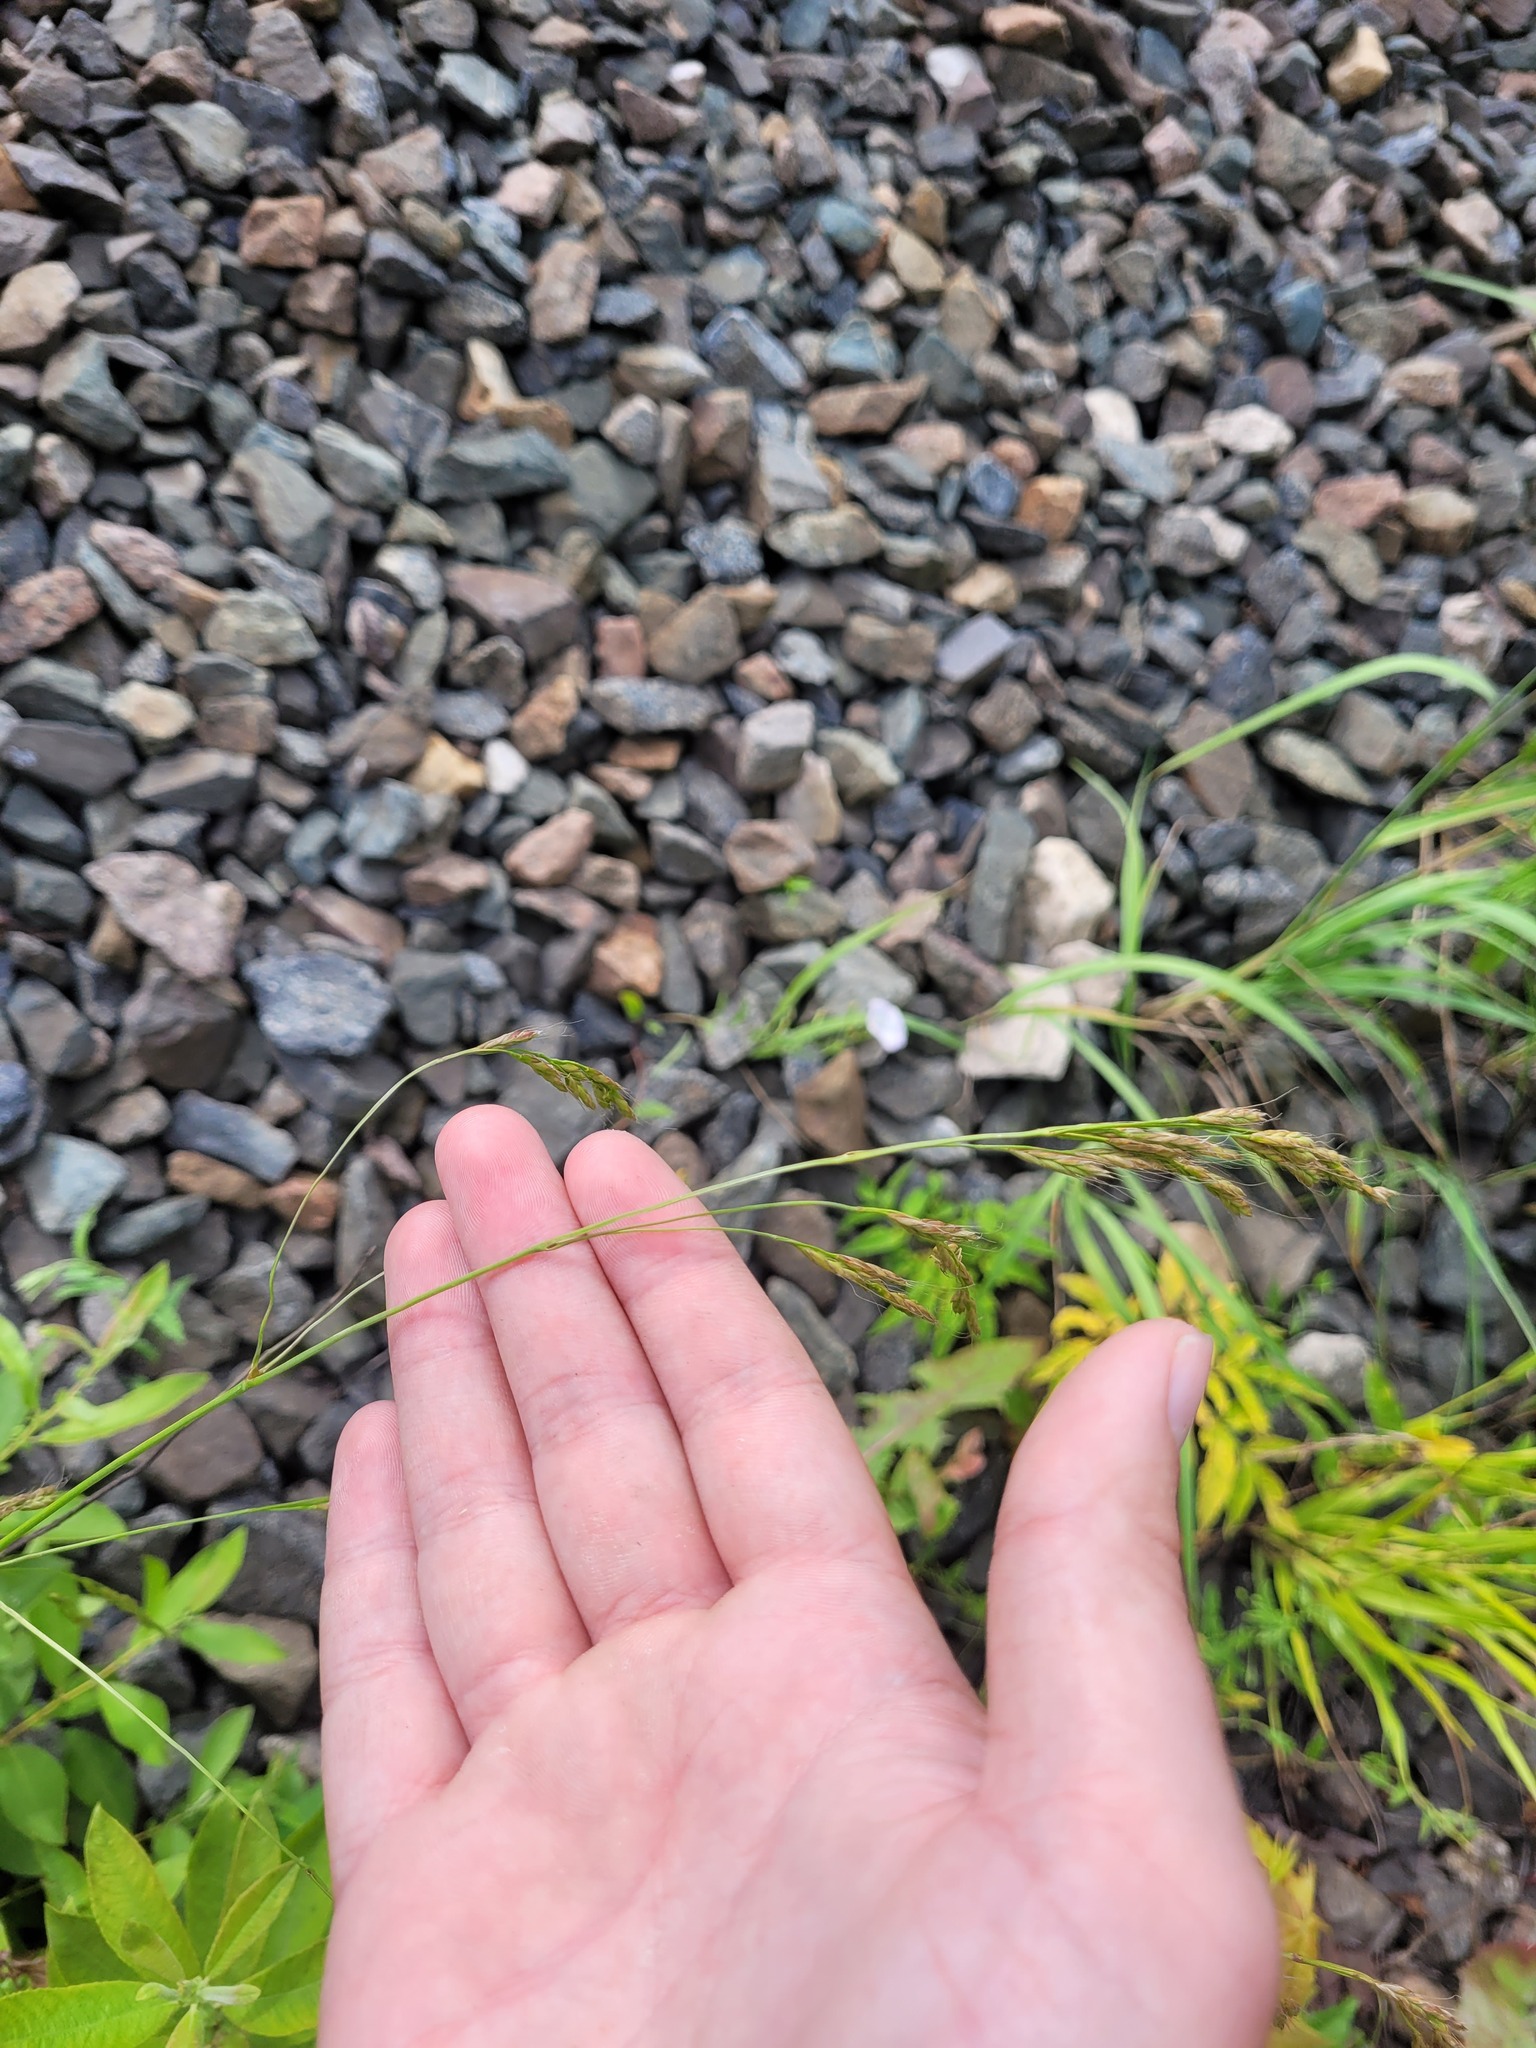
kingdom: Plantae
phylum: Tracheophyta
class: Liliopsida
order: Poales
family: Poaceae
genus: Lolium
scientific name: Lolium giganteum
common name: Giant fescue
